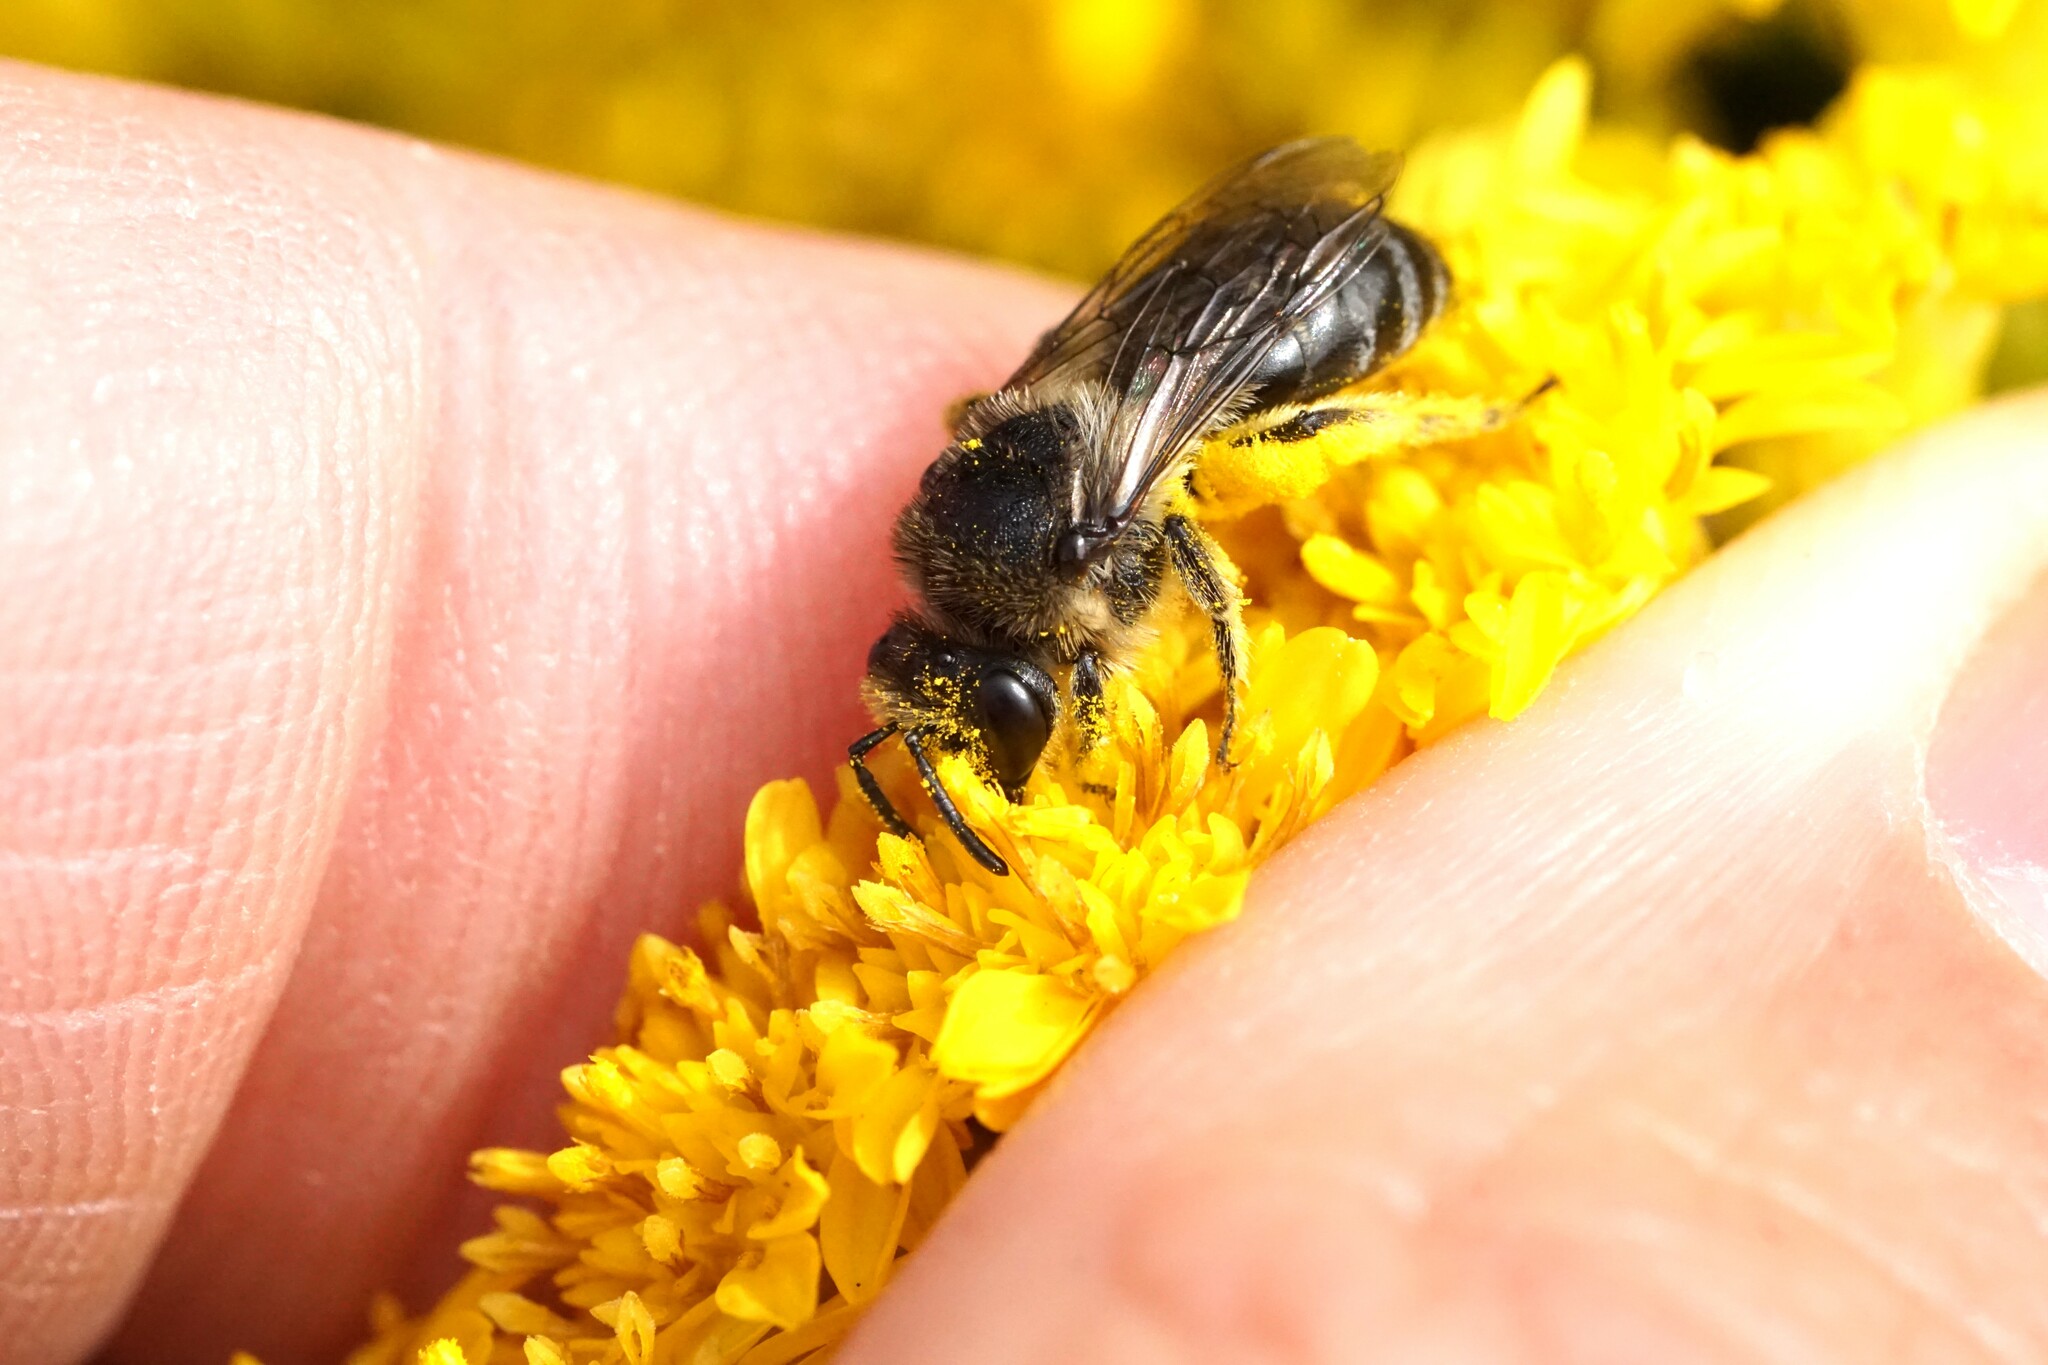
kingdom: Animalia
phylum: Arthropoda
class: Insecta
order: Hymenoptera
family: Colletidae
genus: Colletes
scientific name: Colletes simulans
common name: Spine-shouldered cellophane bee
